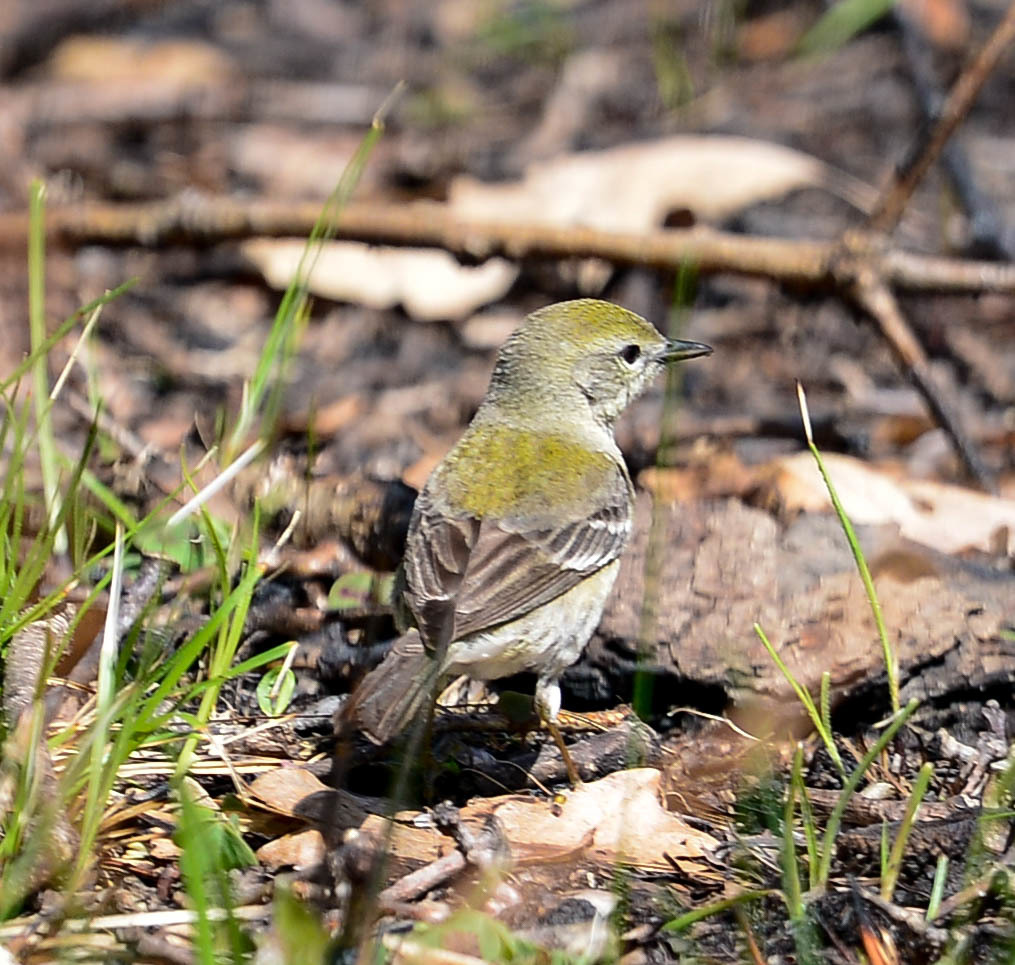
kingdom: Animalia
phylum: Chordata
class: Aves
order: Passeriformes
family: Parulidae
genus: Setophaga
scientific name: Setophaga pinus
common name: Pine warbler
